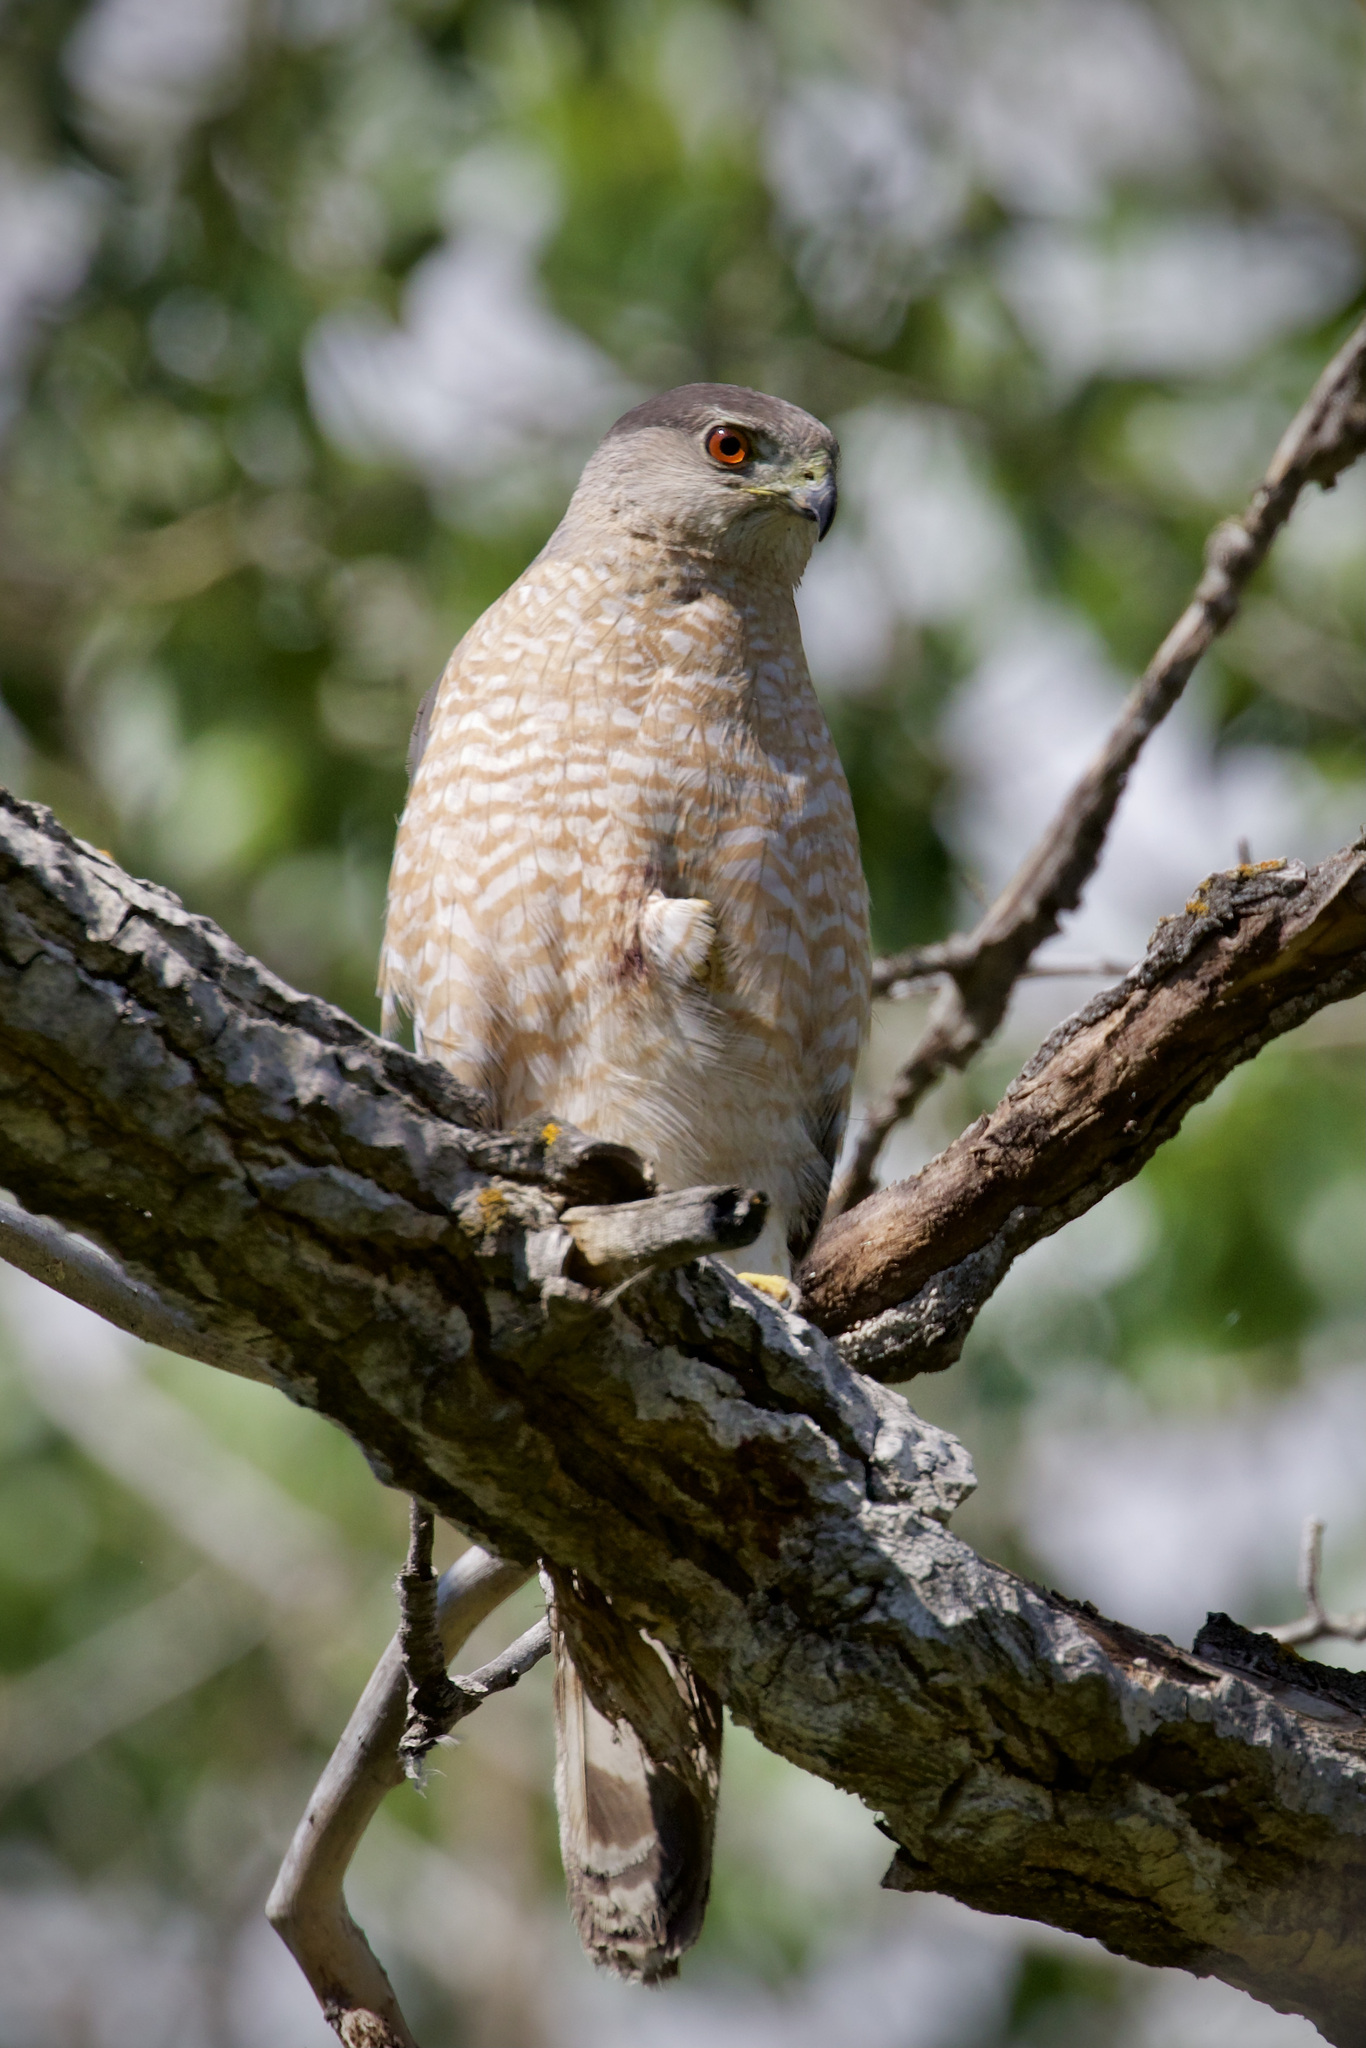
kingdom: Animalia
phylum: Chordata
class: Aves
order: Accipitriformes
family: Accipitridae
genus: Accipiter
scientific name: Accipiter cooperii
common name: Cooper's hawk
